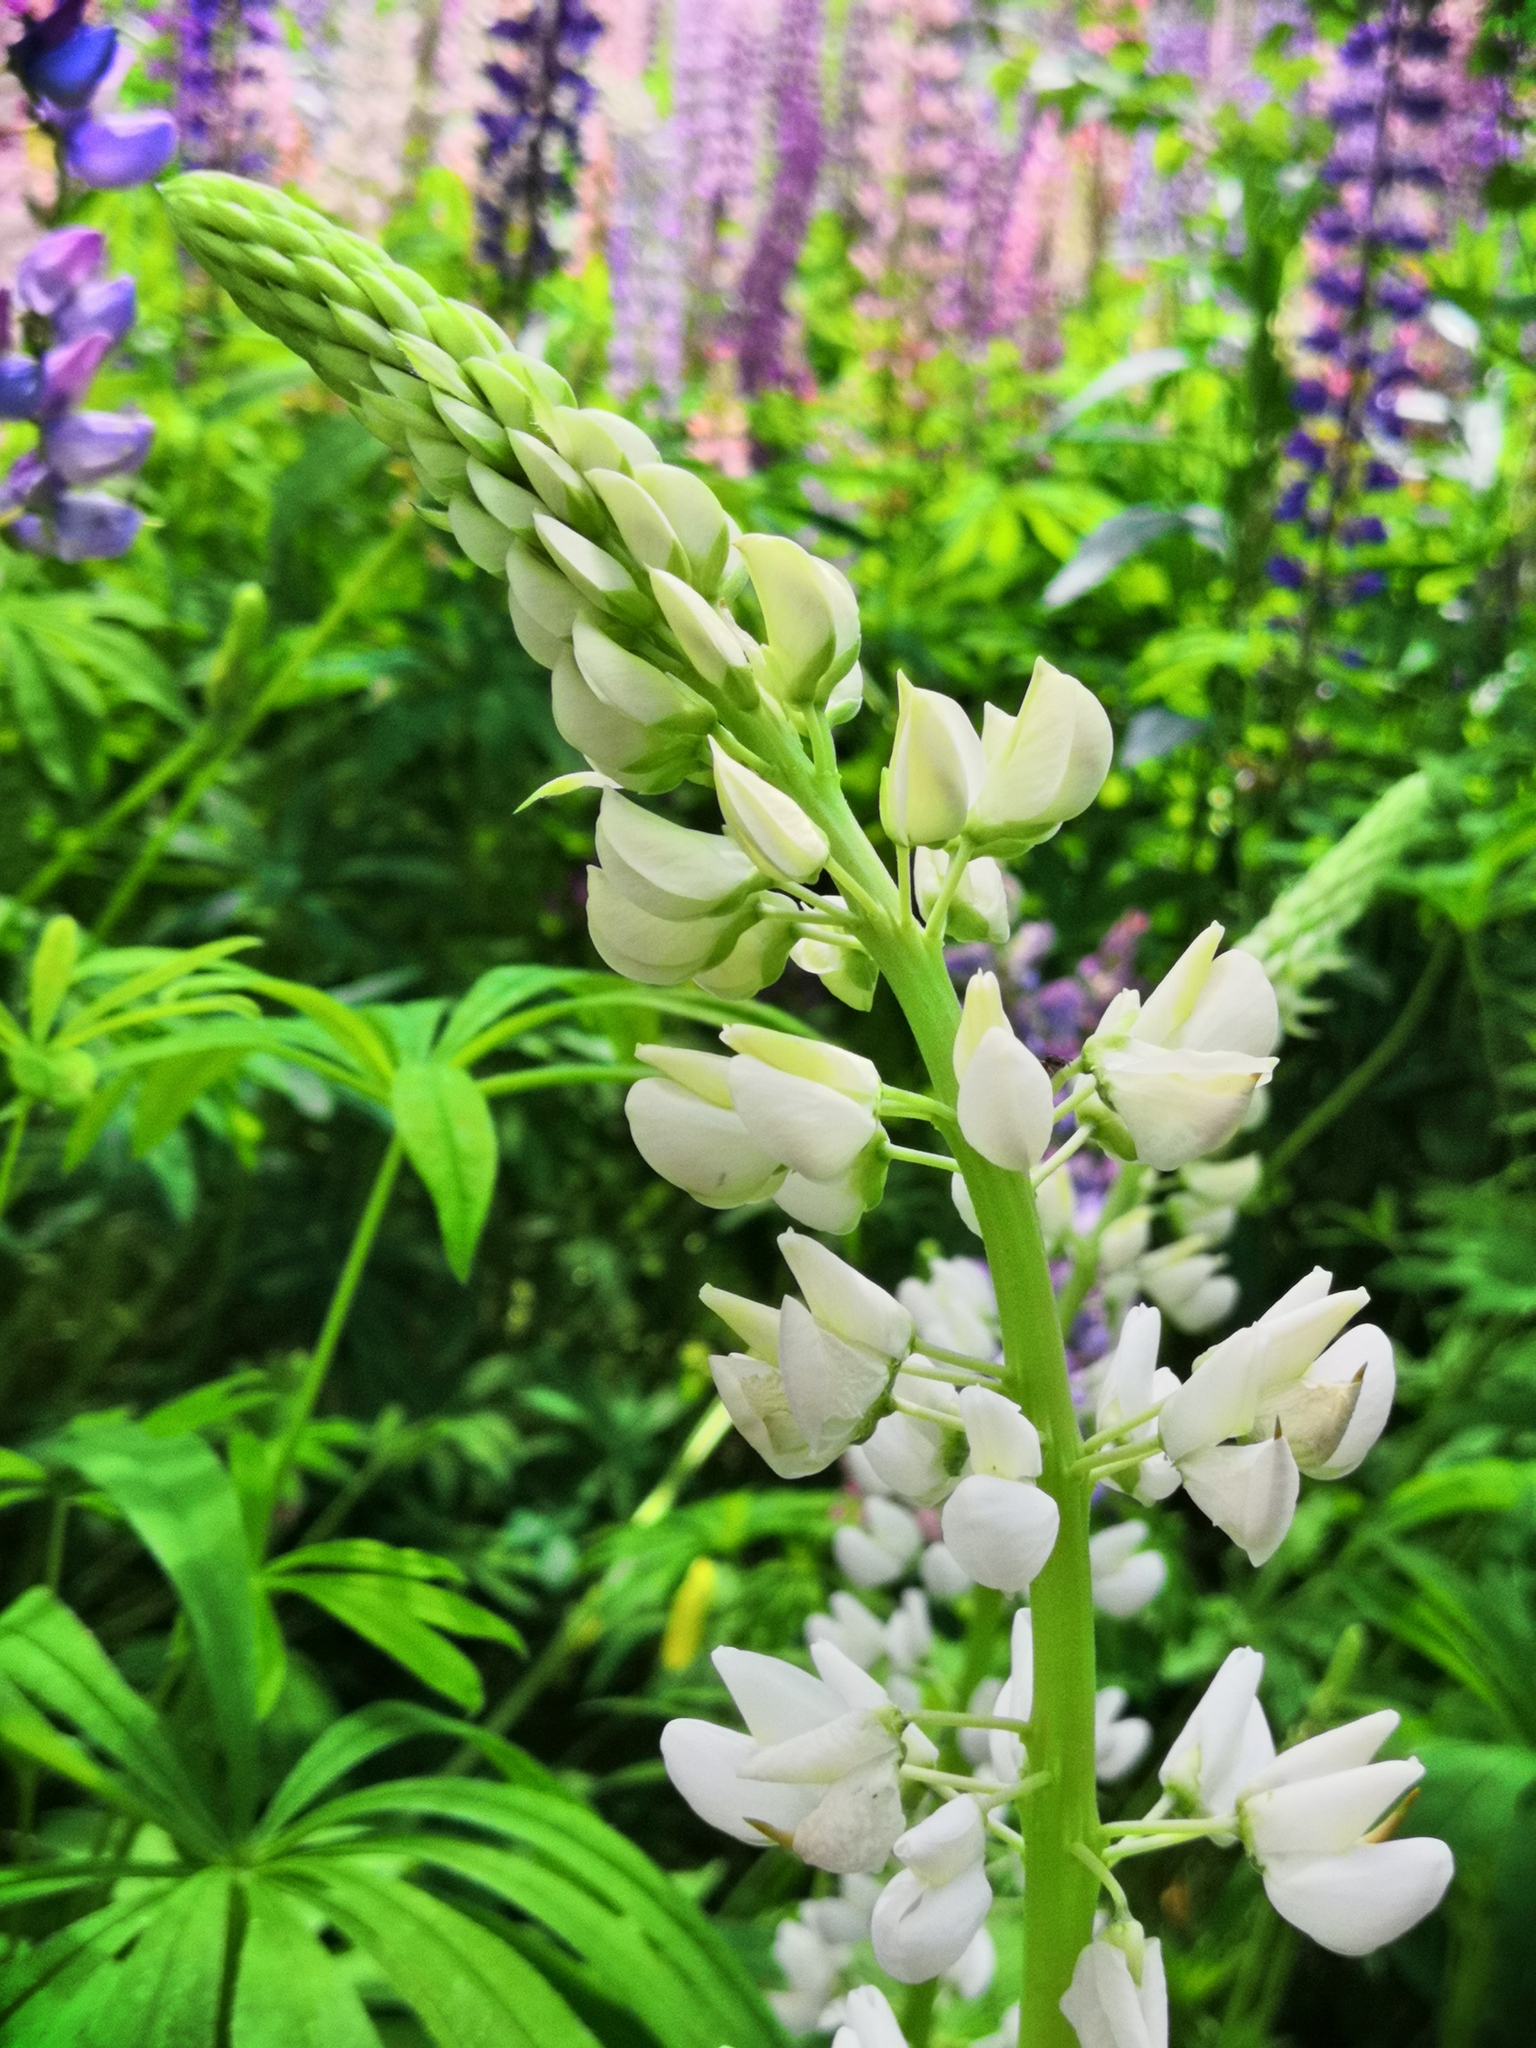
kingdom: Plantae
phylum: Tracheophyta
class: Magnoliopsida
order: Fabales
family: Fabaceae
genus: Lupinus
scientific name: Lupinus polyphyllus
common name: Garden lupin
